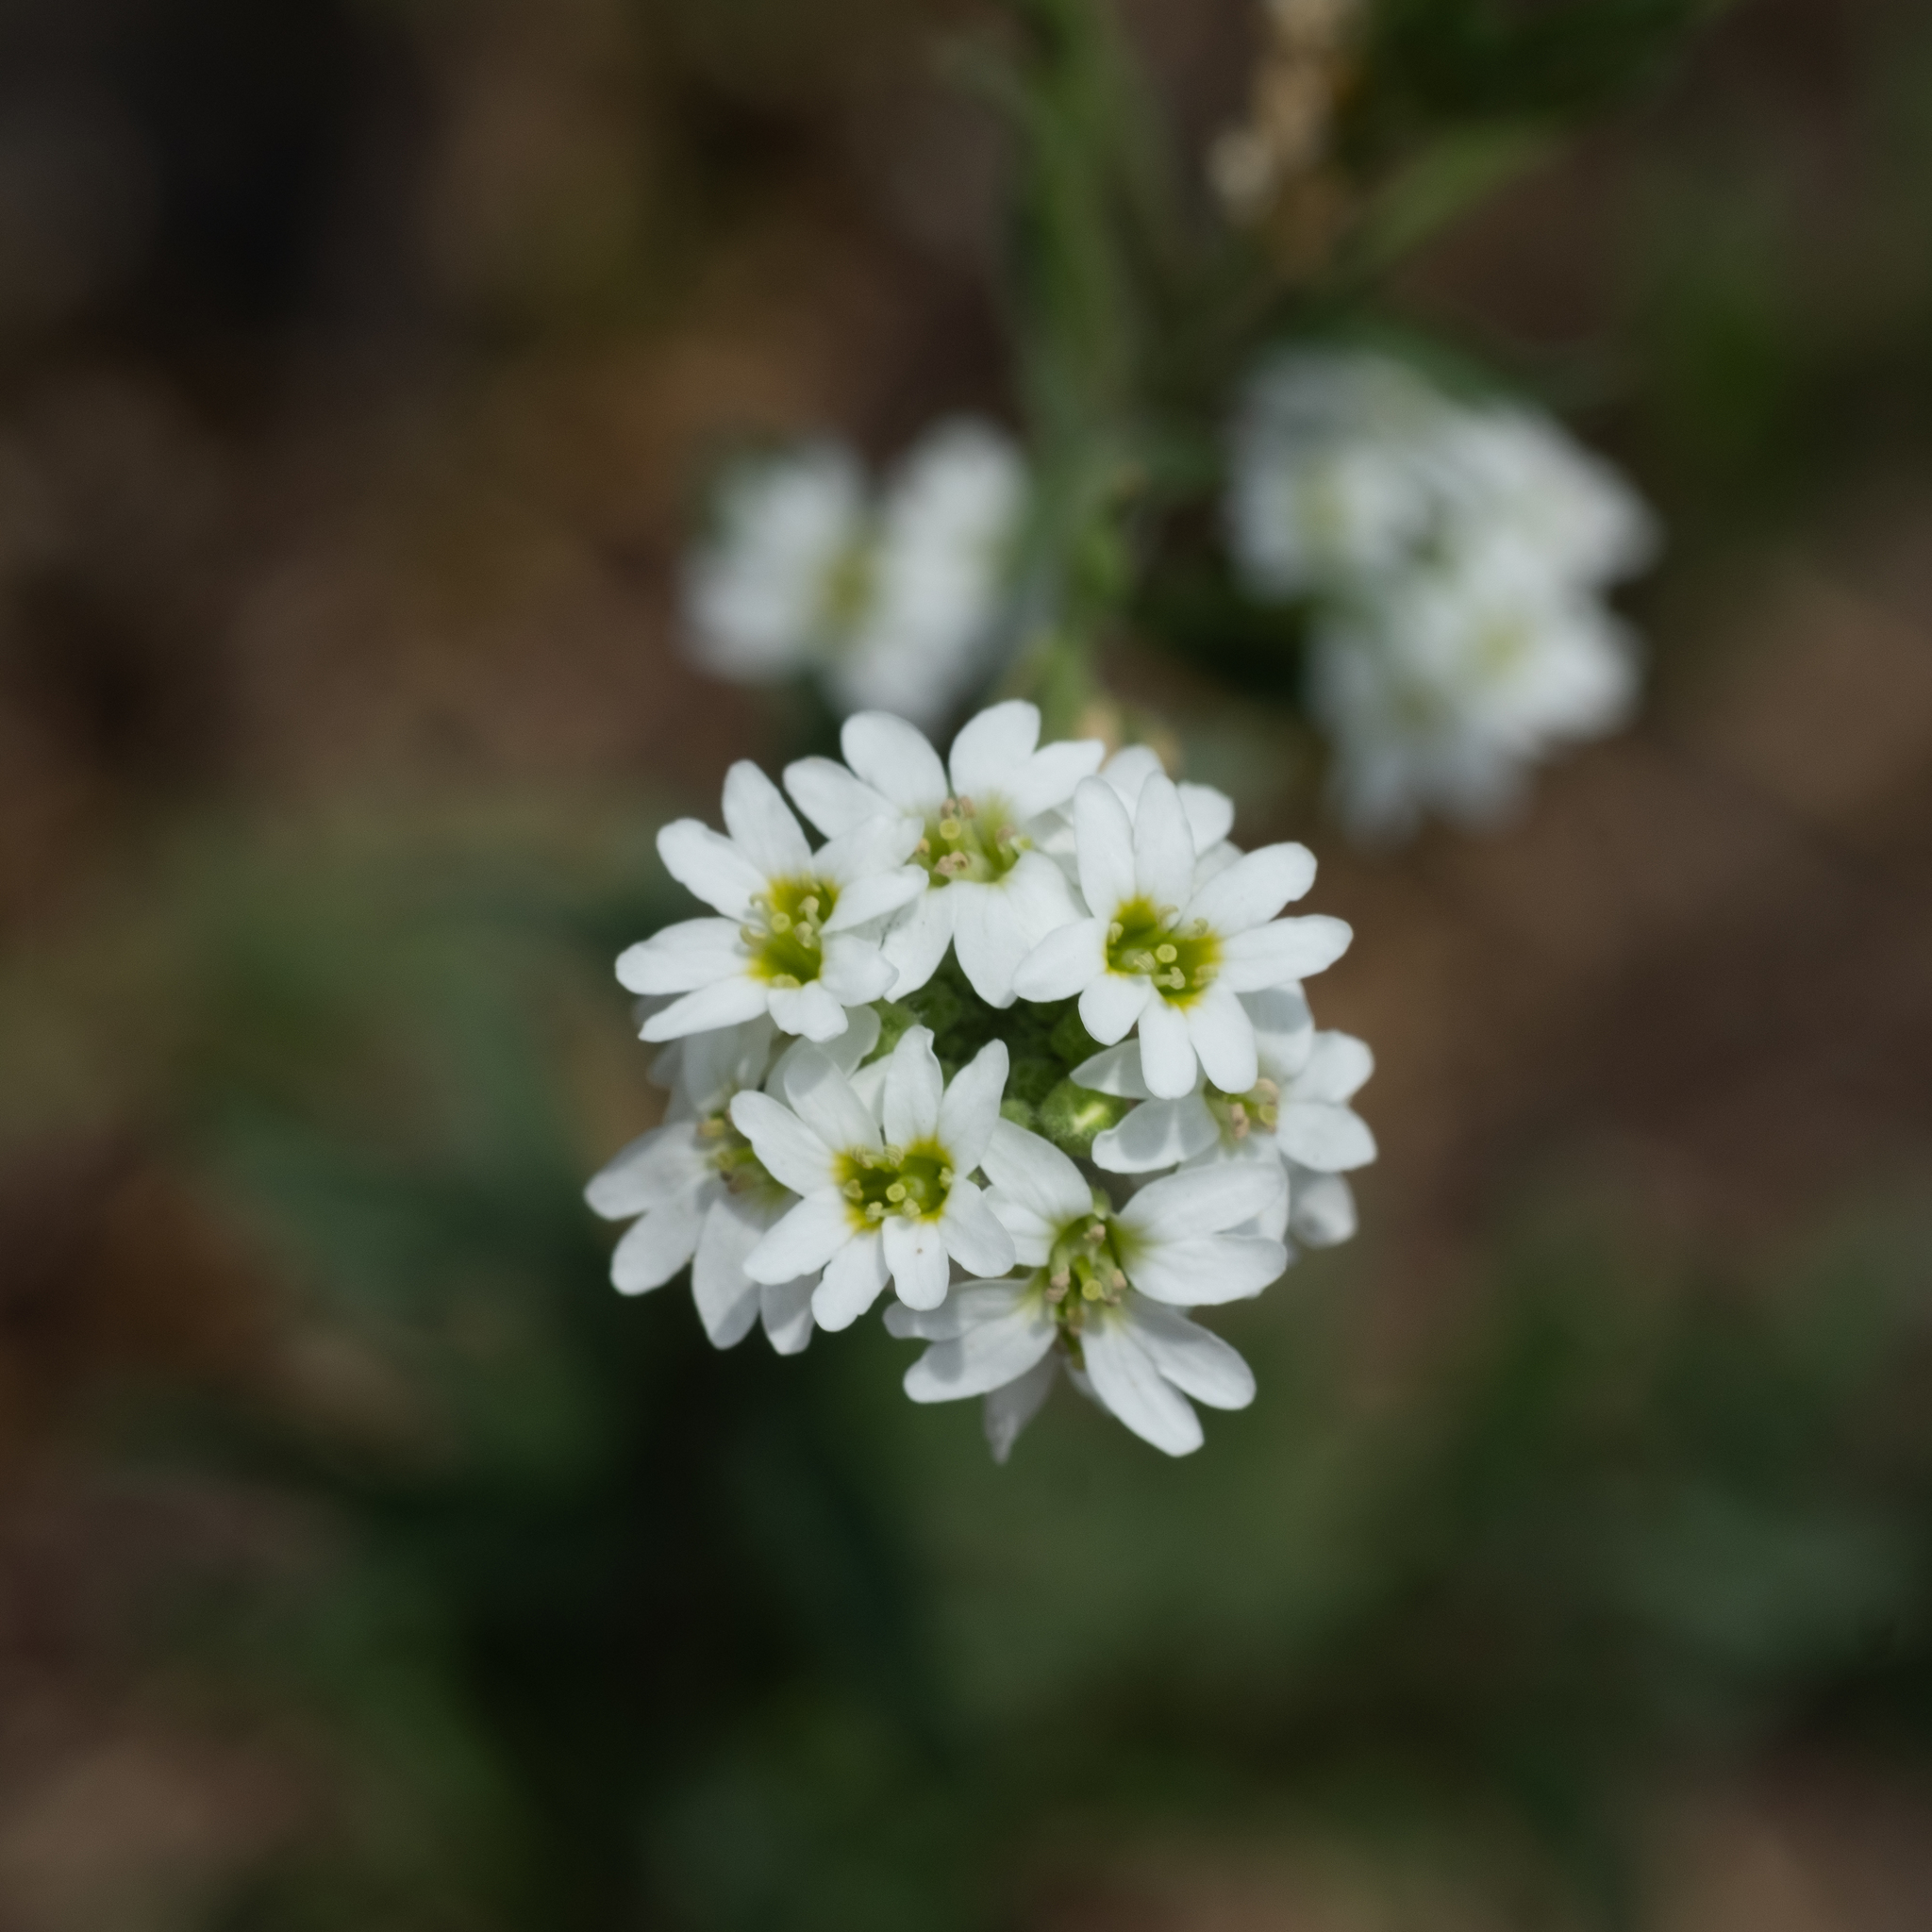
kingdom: Plantae
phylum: Tracheophyta
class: Magnoliopsida
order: Brassicales
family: Brassicaceae
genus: Berteroa
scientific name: Berteroa incana
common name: Hoary alison
